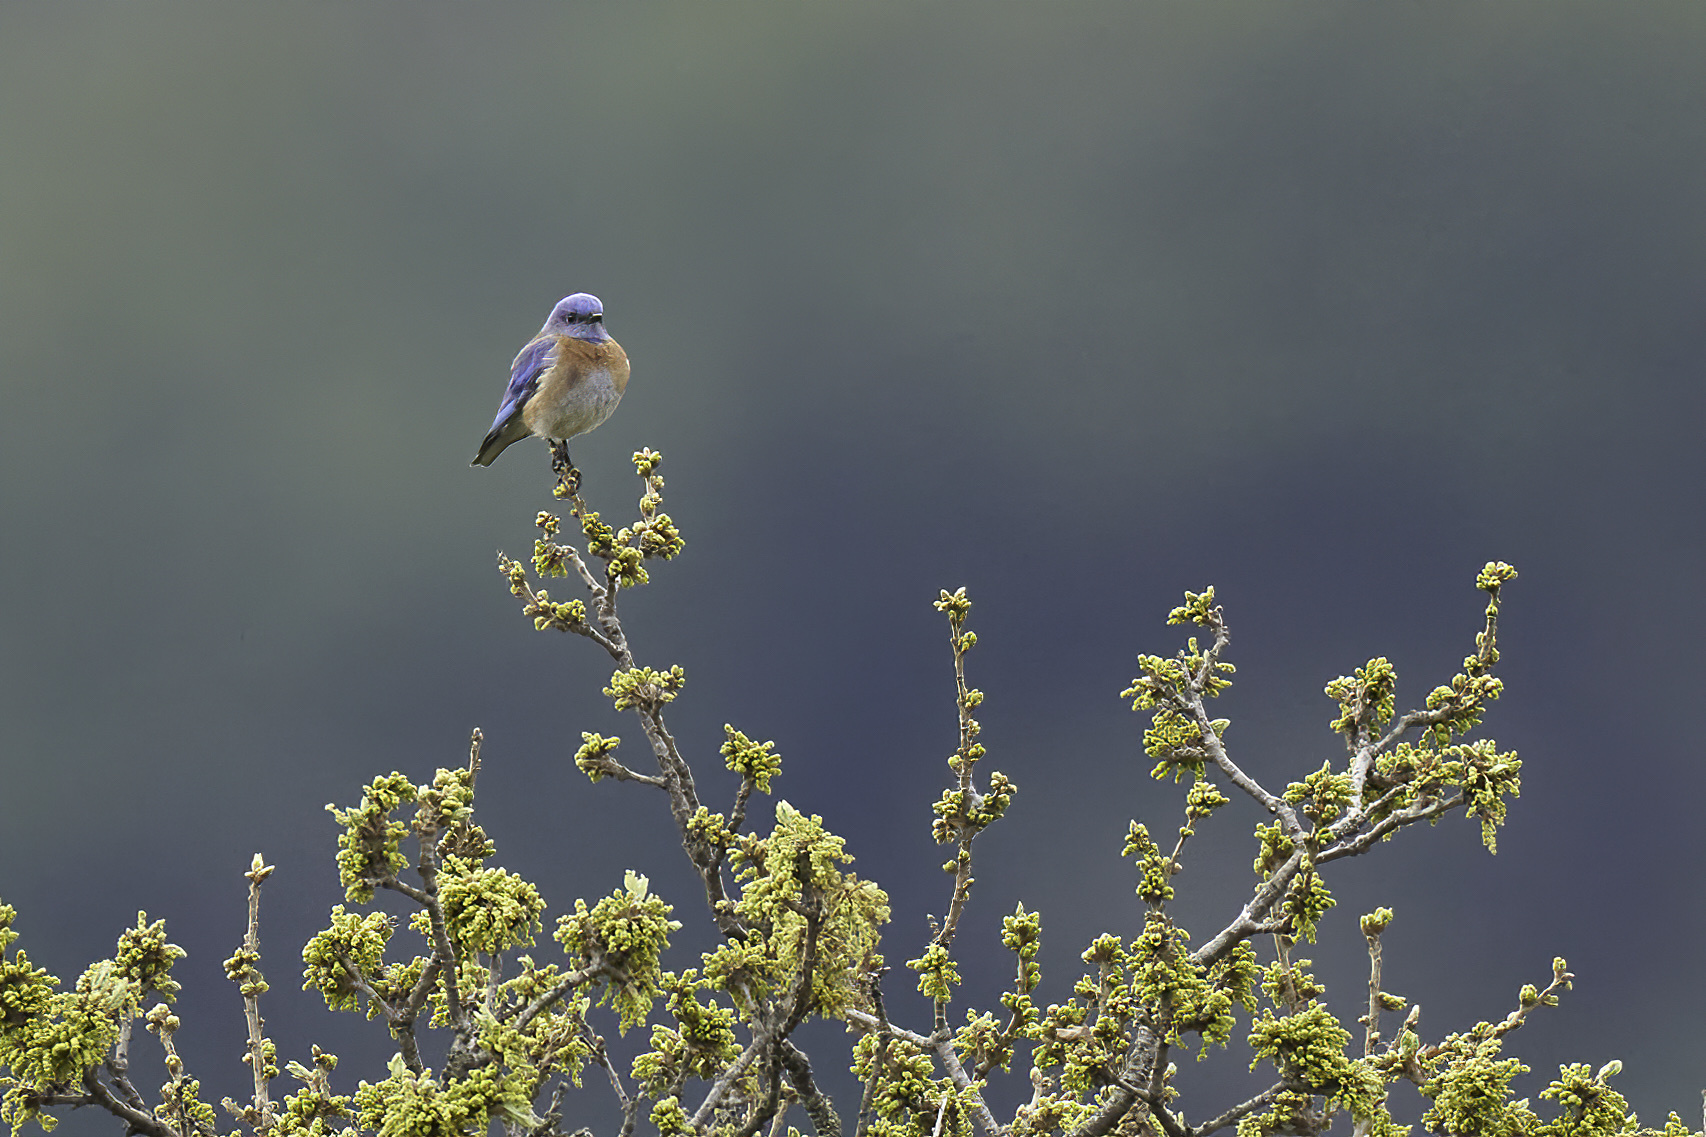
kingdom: Animalia
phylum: Chordata
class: Aves
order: Passeriformes
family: Turdidae
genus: Sialia
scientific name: Sialia mexicana
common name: Western bluebird
